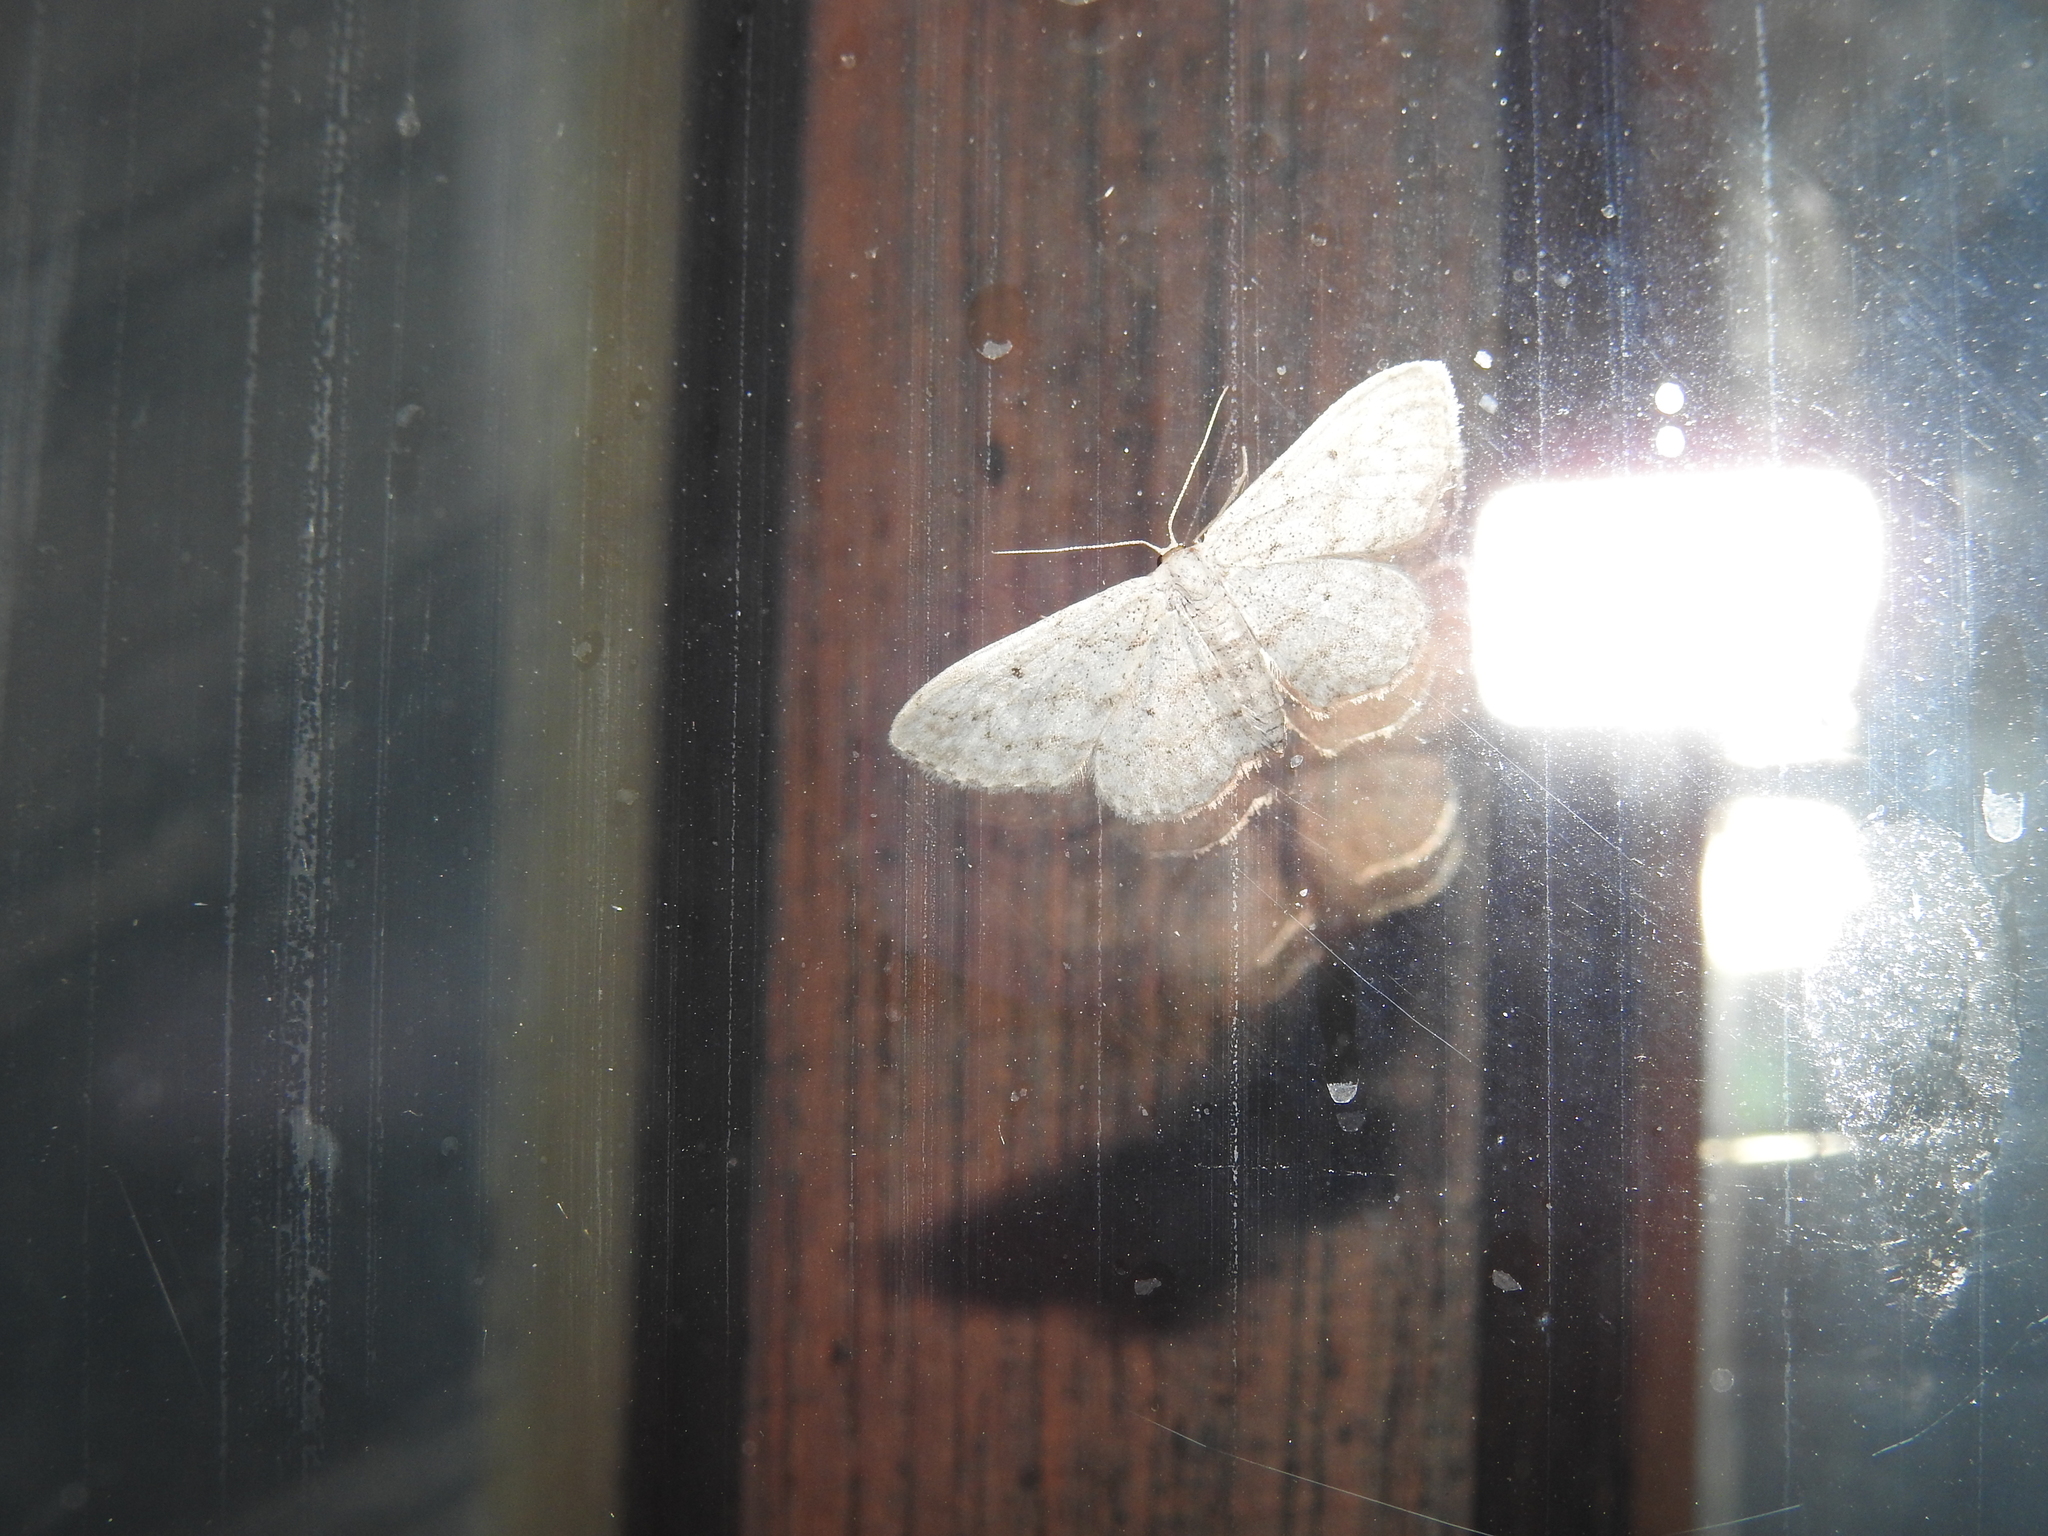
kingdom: Animalia
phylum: Arthropoda
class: Insecta
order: Lepidoptera
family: Geometridae
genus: Idaea
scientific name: Idaea seriata
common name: Small dusty wave
